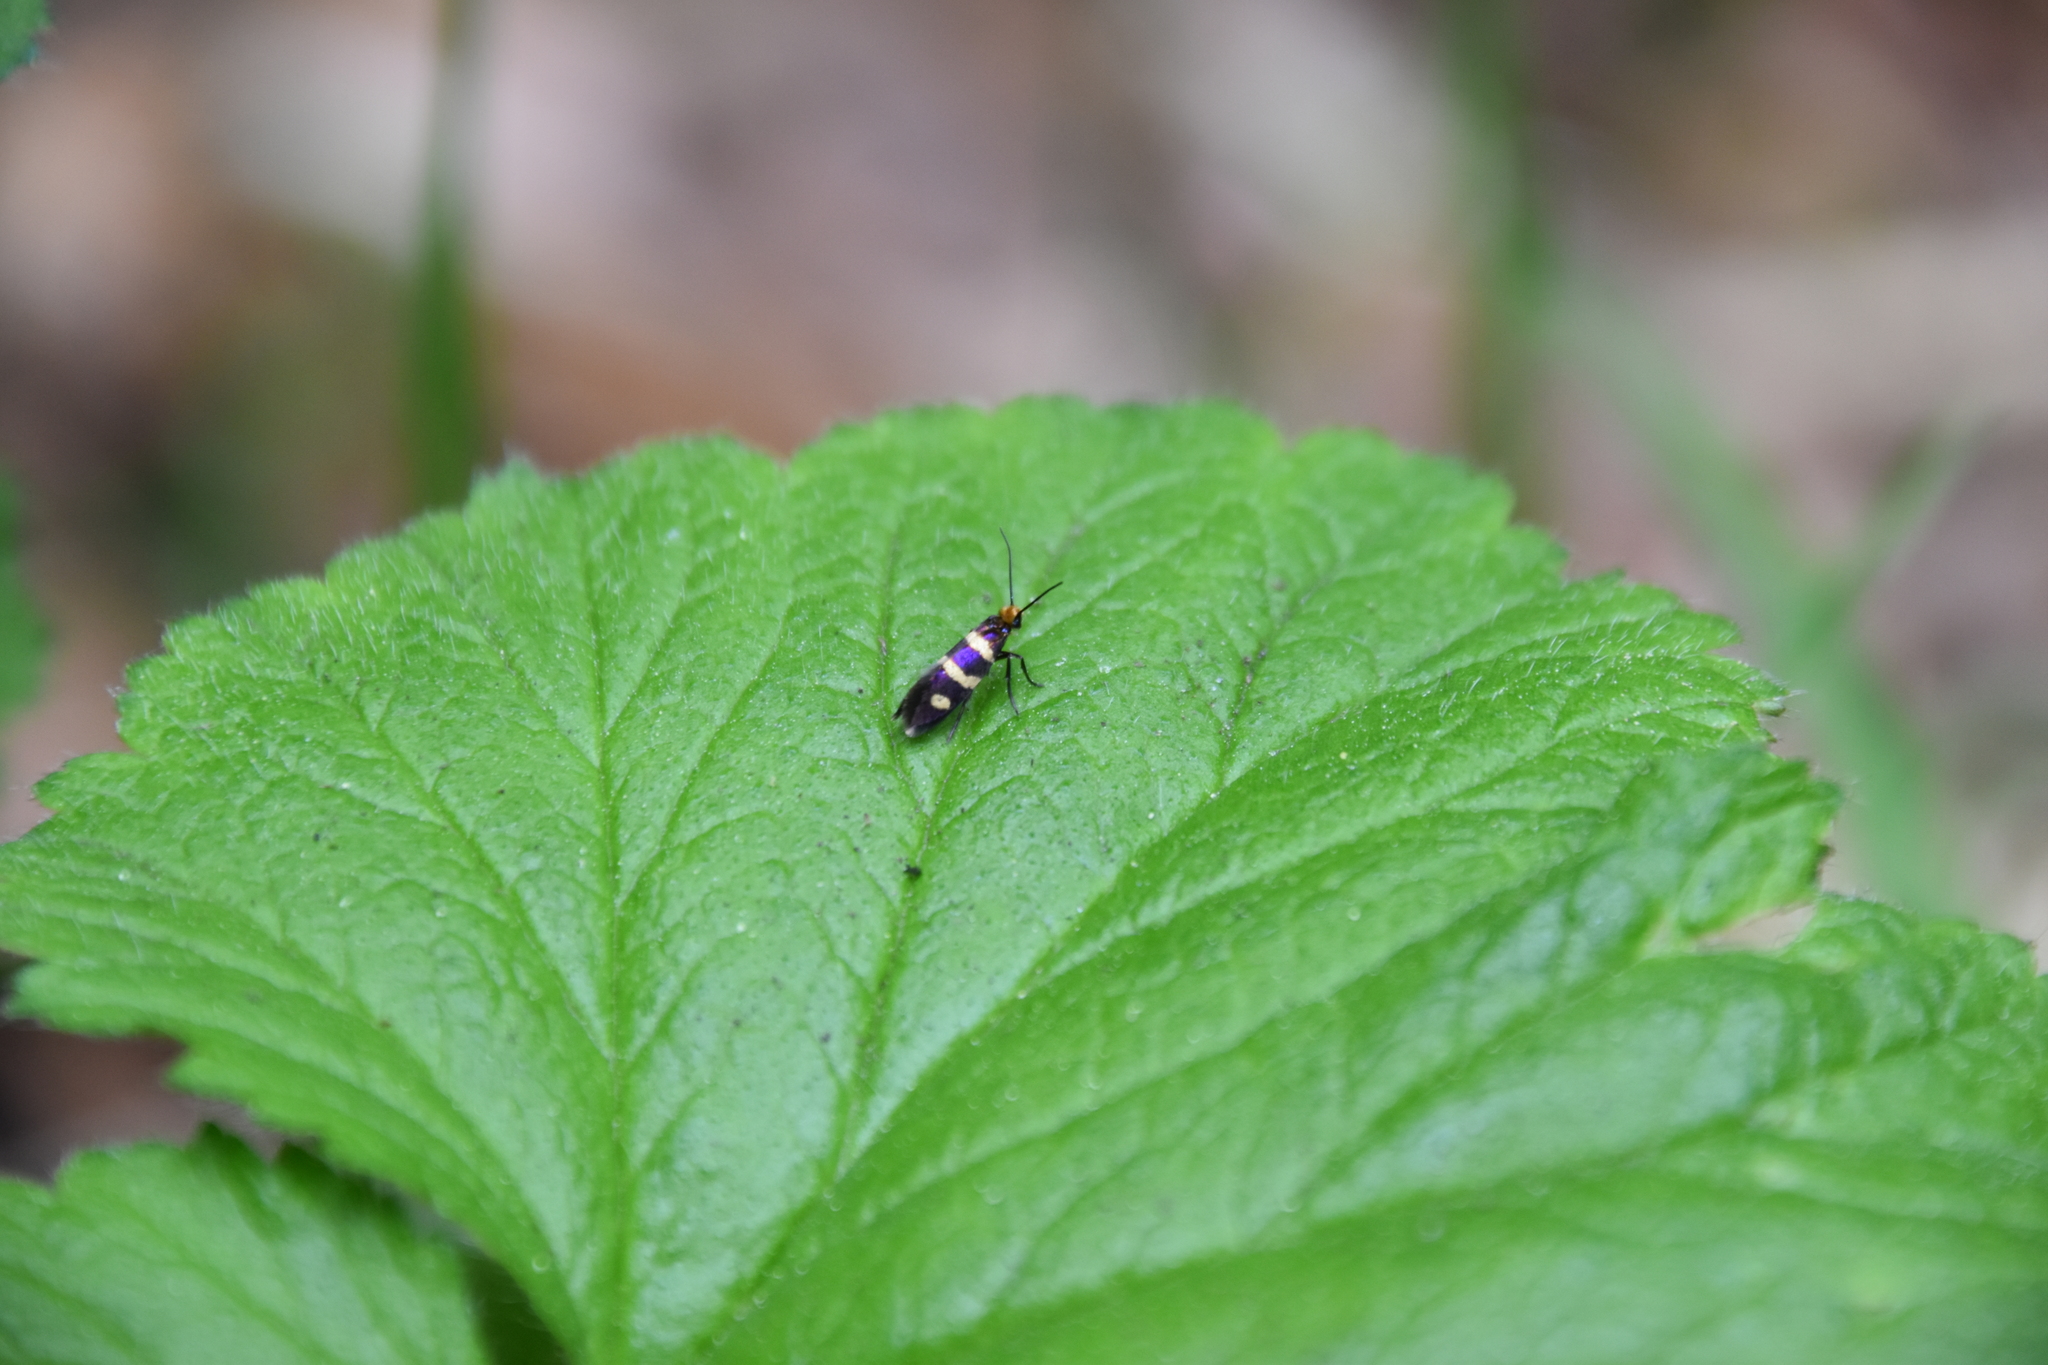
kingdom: Animalia
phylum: Arthropoda
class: Insecta
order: Lepidoptera
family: Micropterigidae
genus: Micropterix
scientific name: Micropterix aureatella
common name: Yellow-barred gold
